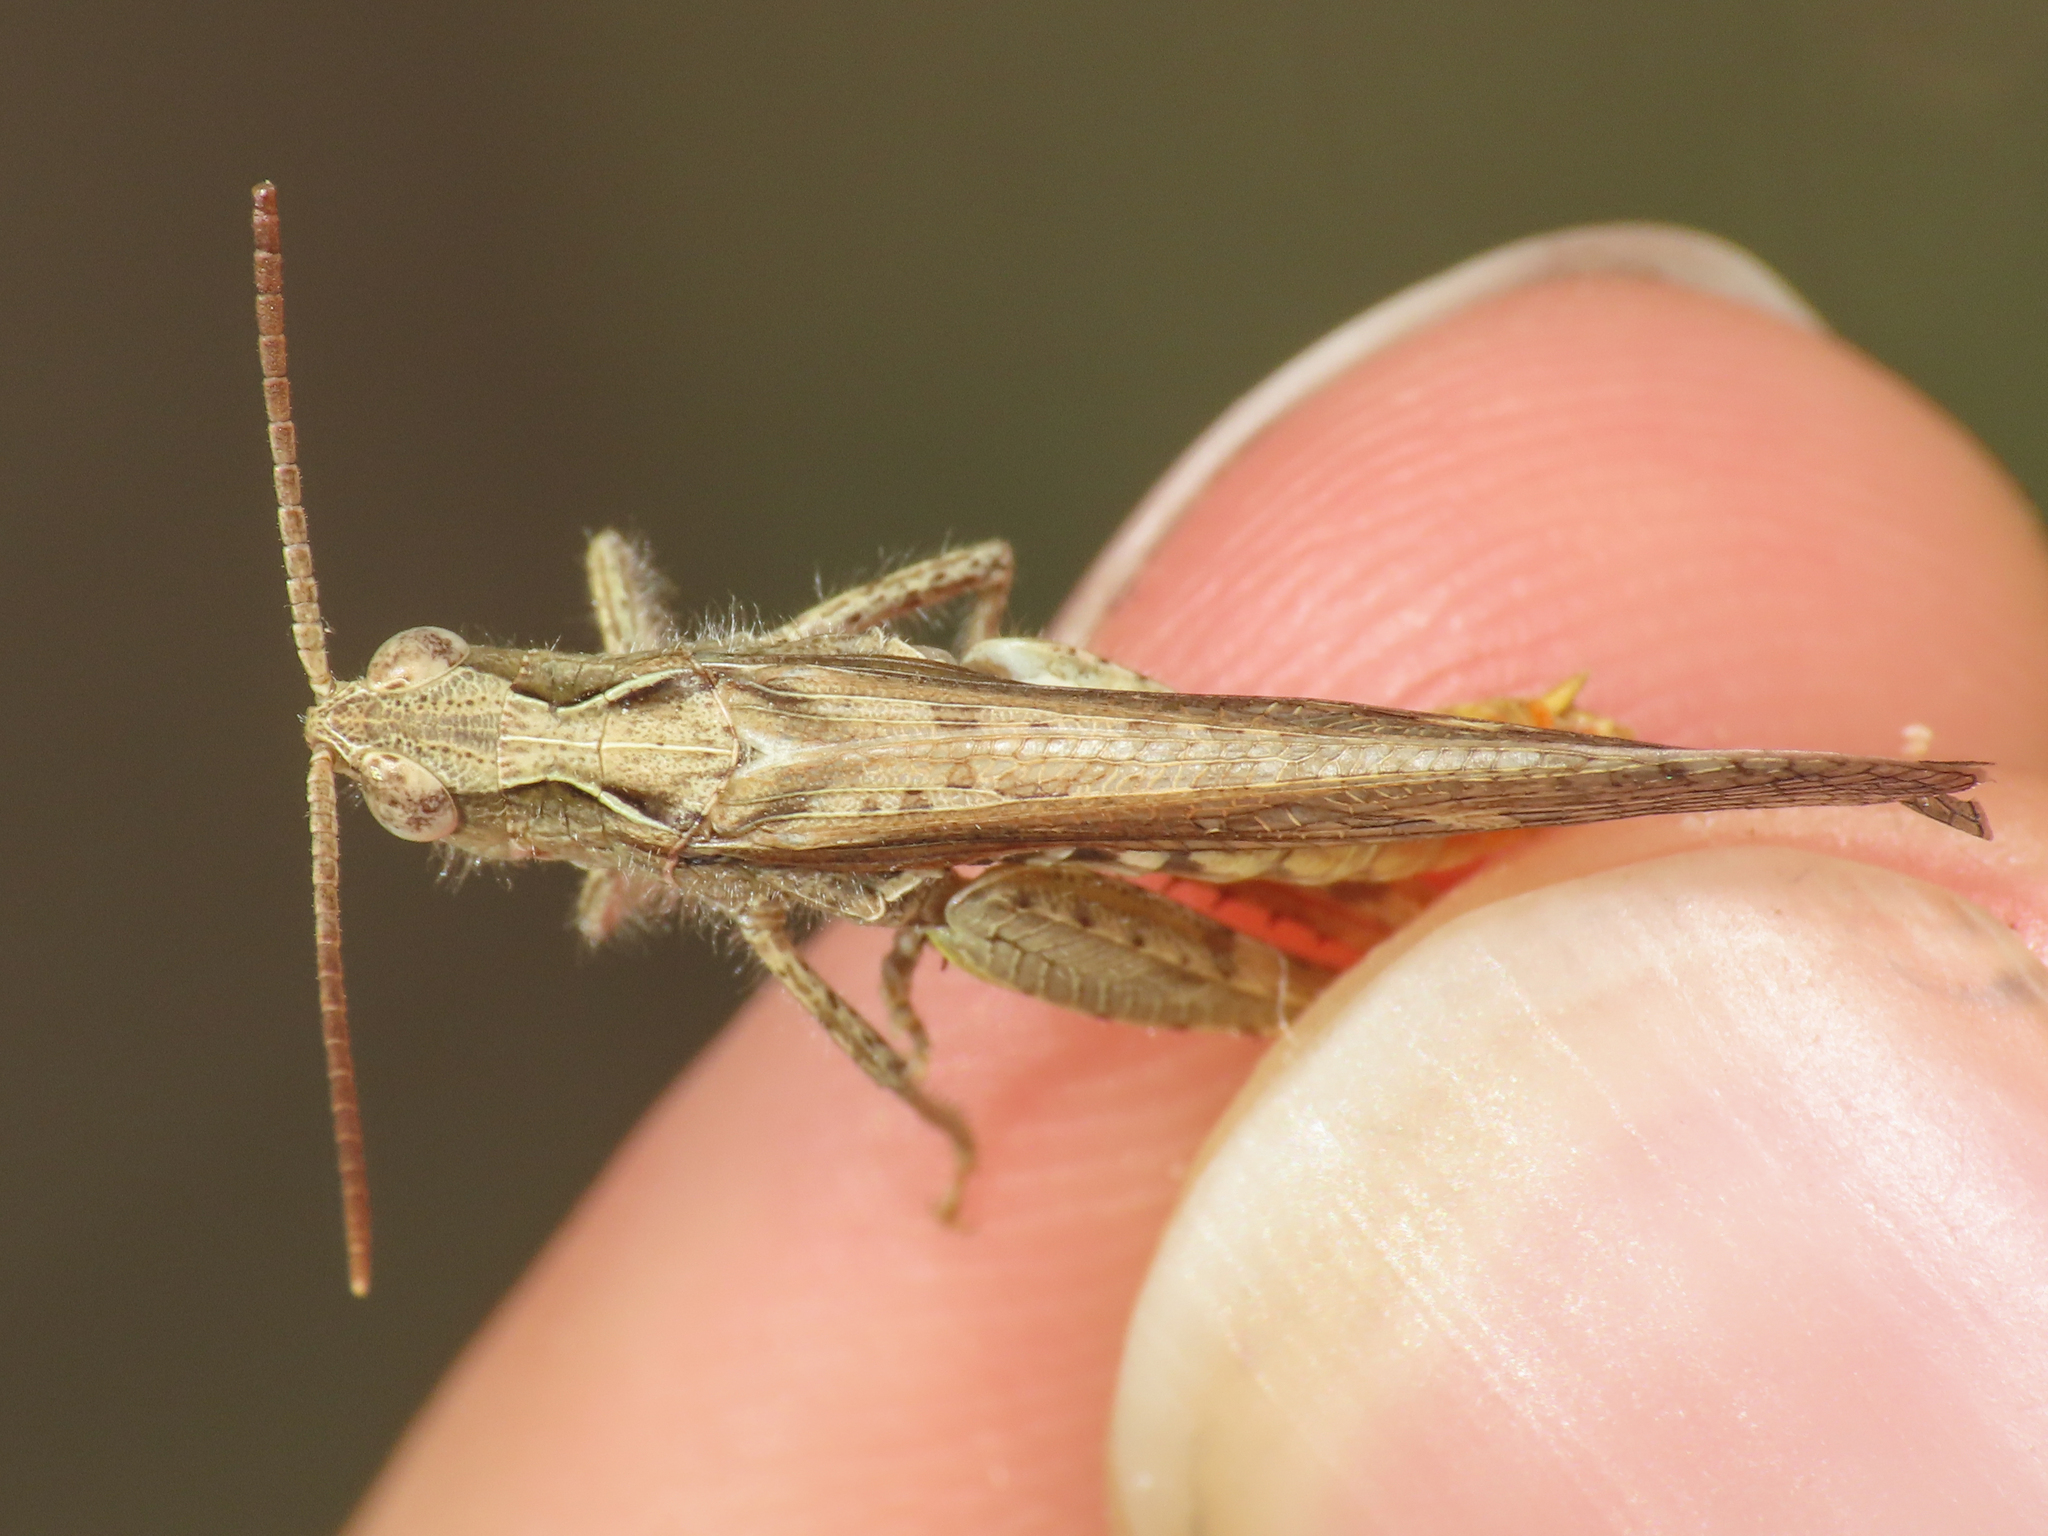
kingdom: Animalia
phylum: Arthropoda
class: Insecta
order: Orthoptera
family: Acrididae
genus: Chorthippus
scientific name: Chorthippus brunneus
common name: Field grasshopper
